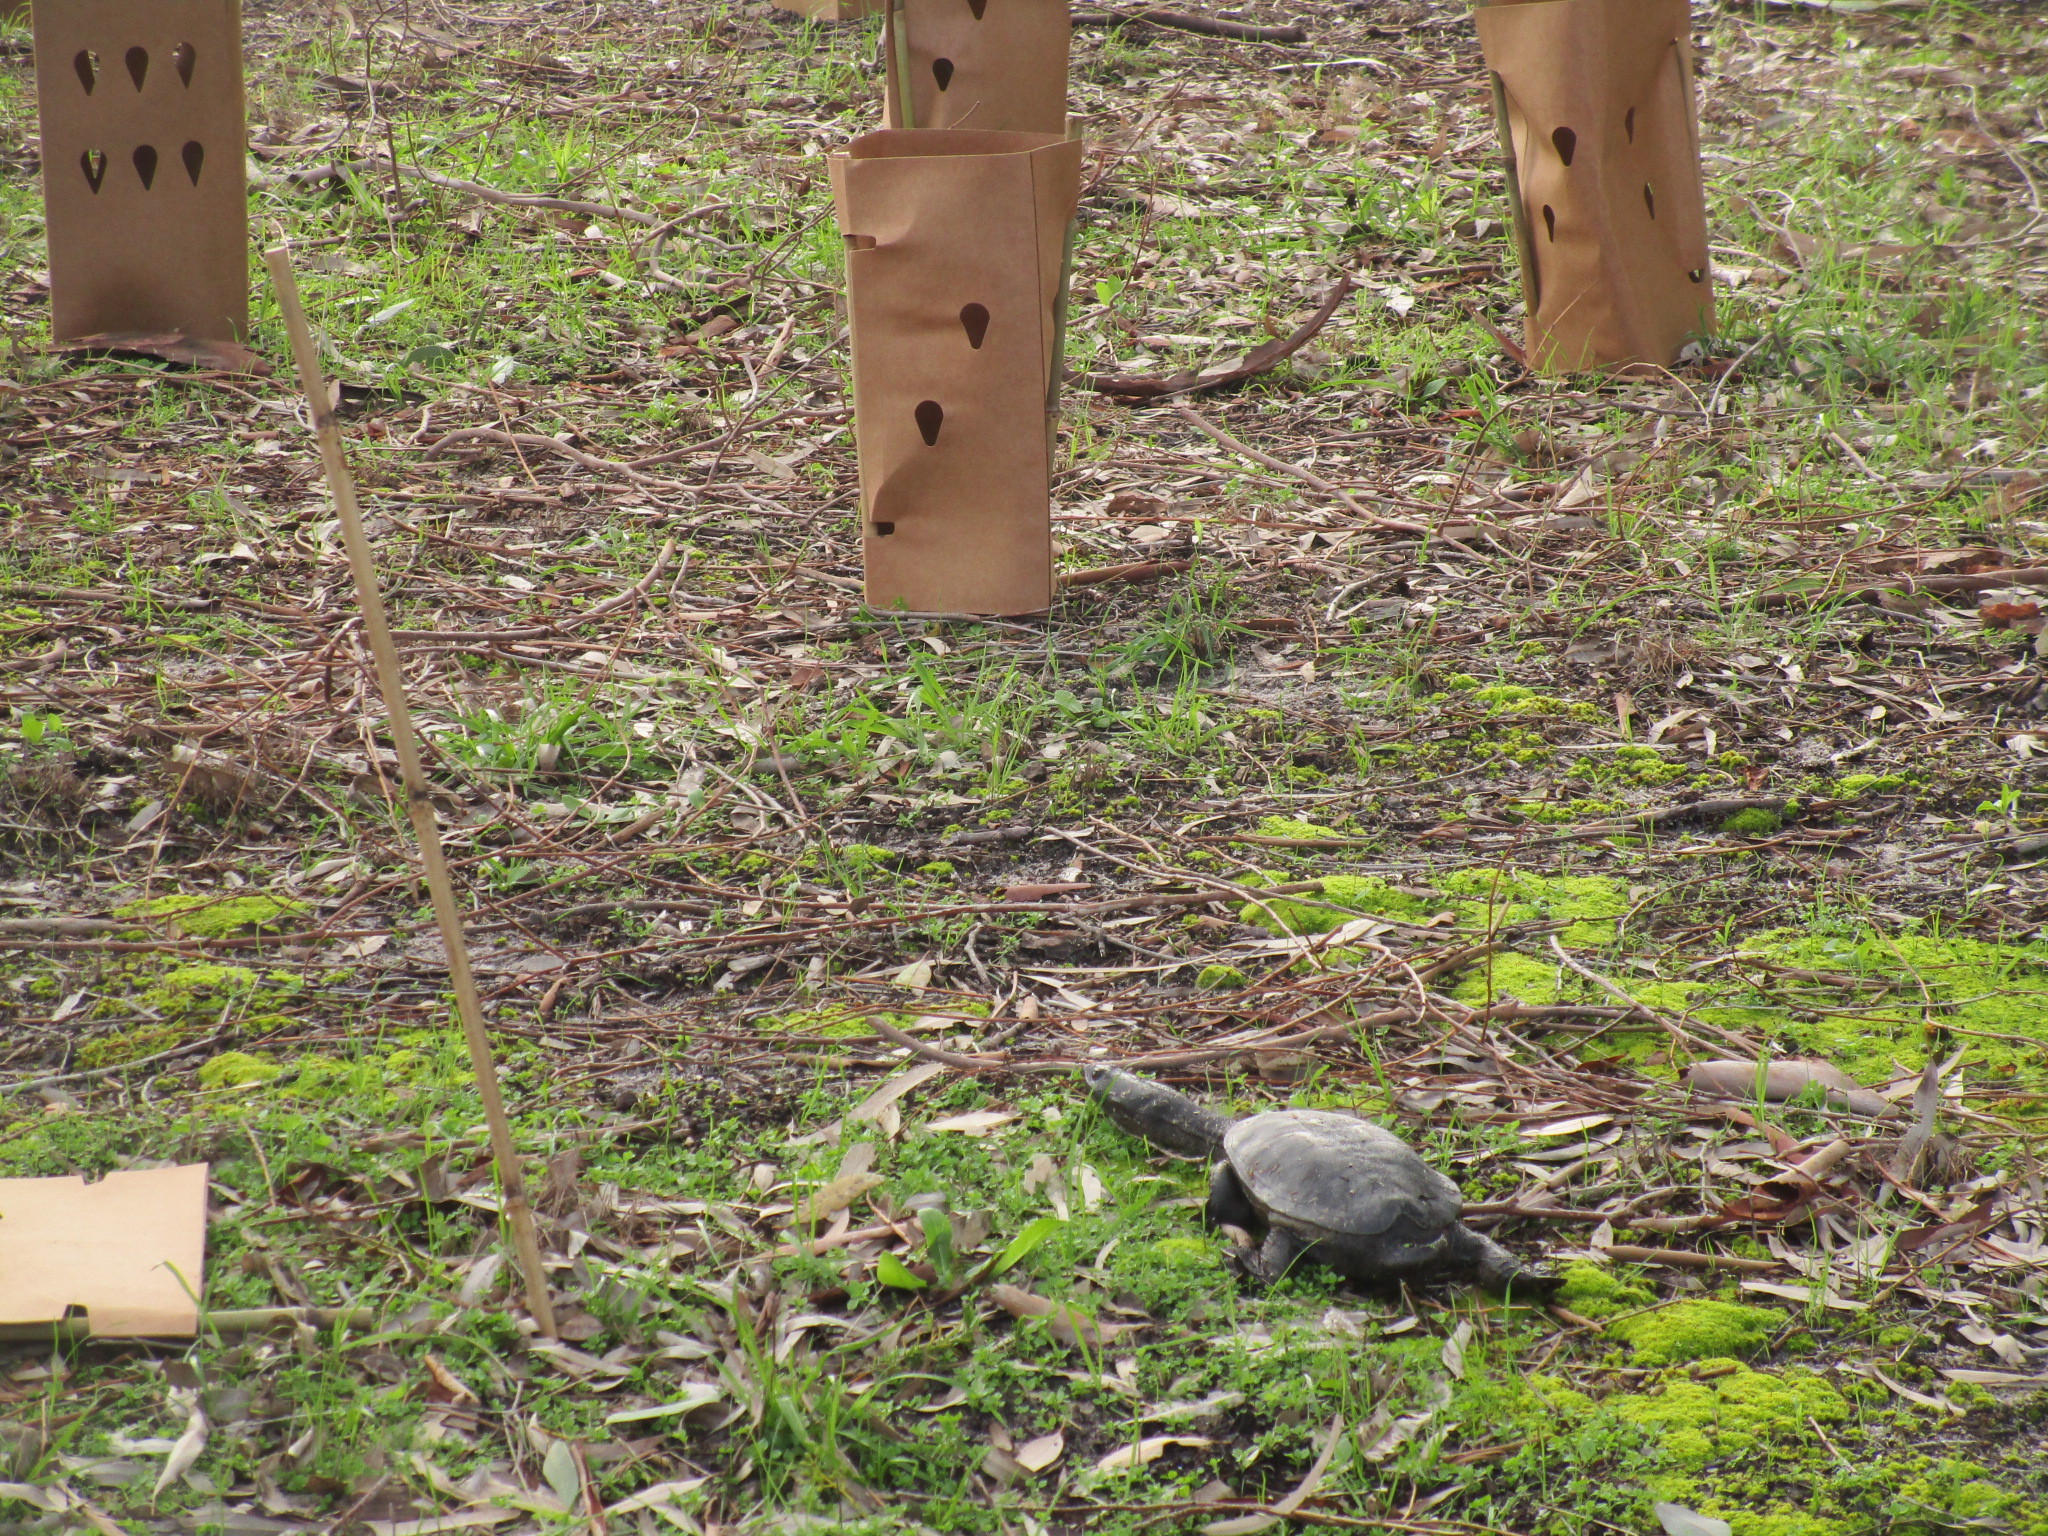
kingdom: Animalia
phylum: Chordata
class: Testudines
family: Chelidae
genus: Chelodina
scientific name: Chelodina oblonga
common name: Northern snake-necked turtle
